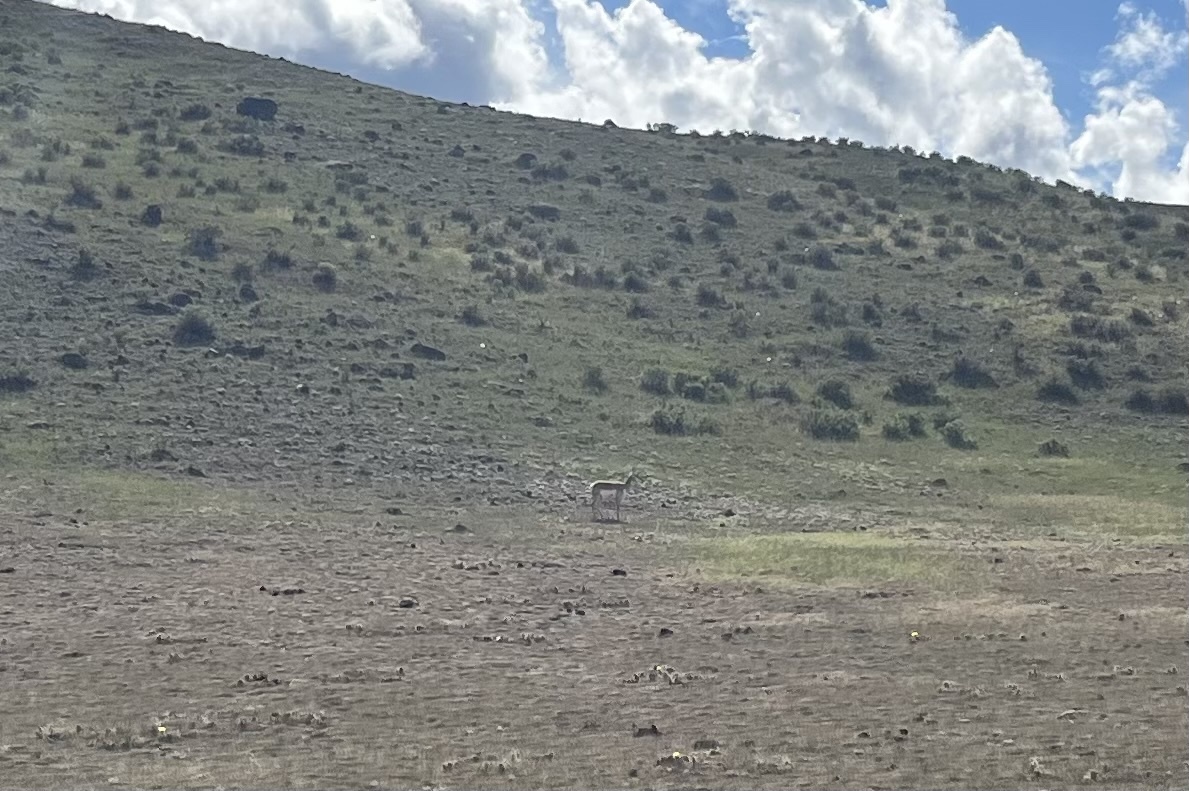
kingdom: Animalia
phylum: Chordata
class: Mammalia
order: Artiodactyla
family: Antilocapridae
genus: Antilocapra
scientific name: Antilocapra americana
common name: Pronghorn
